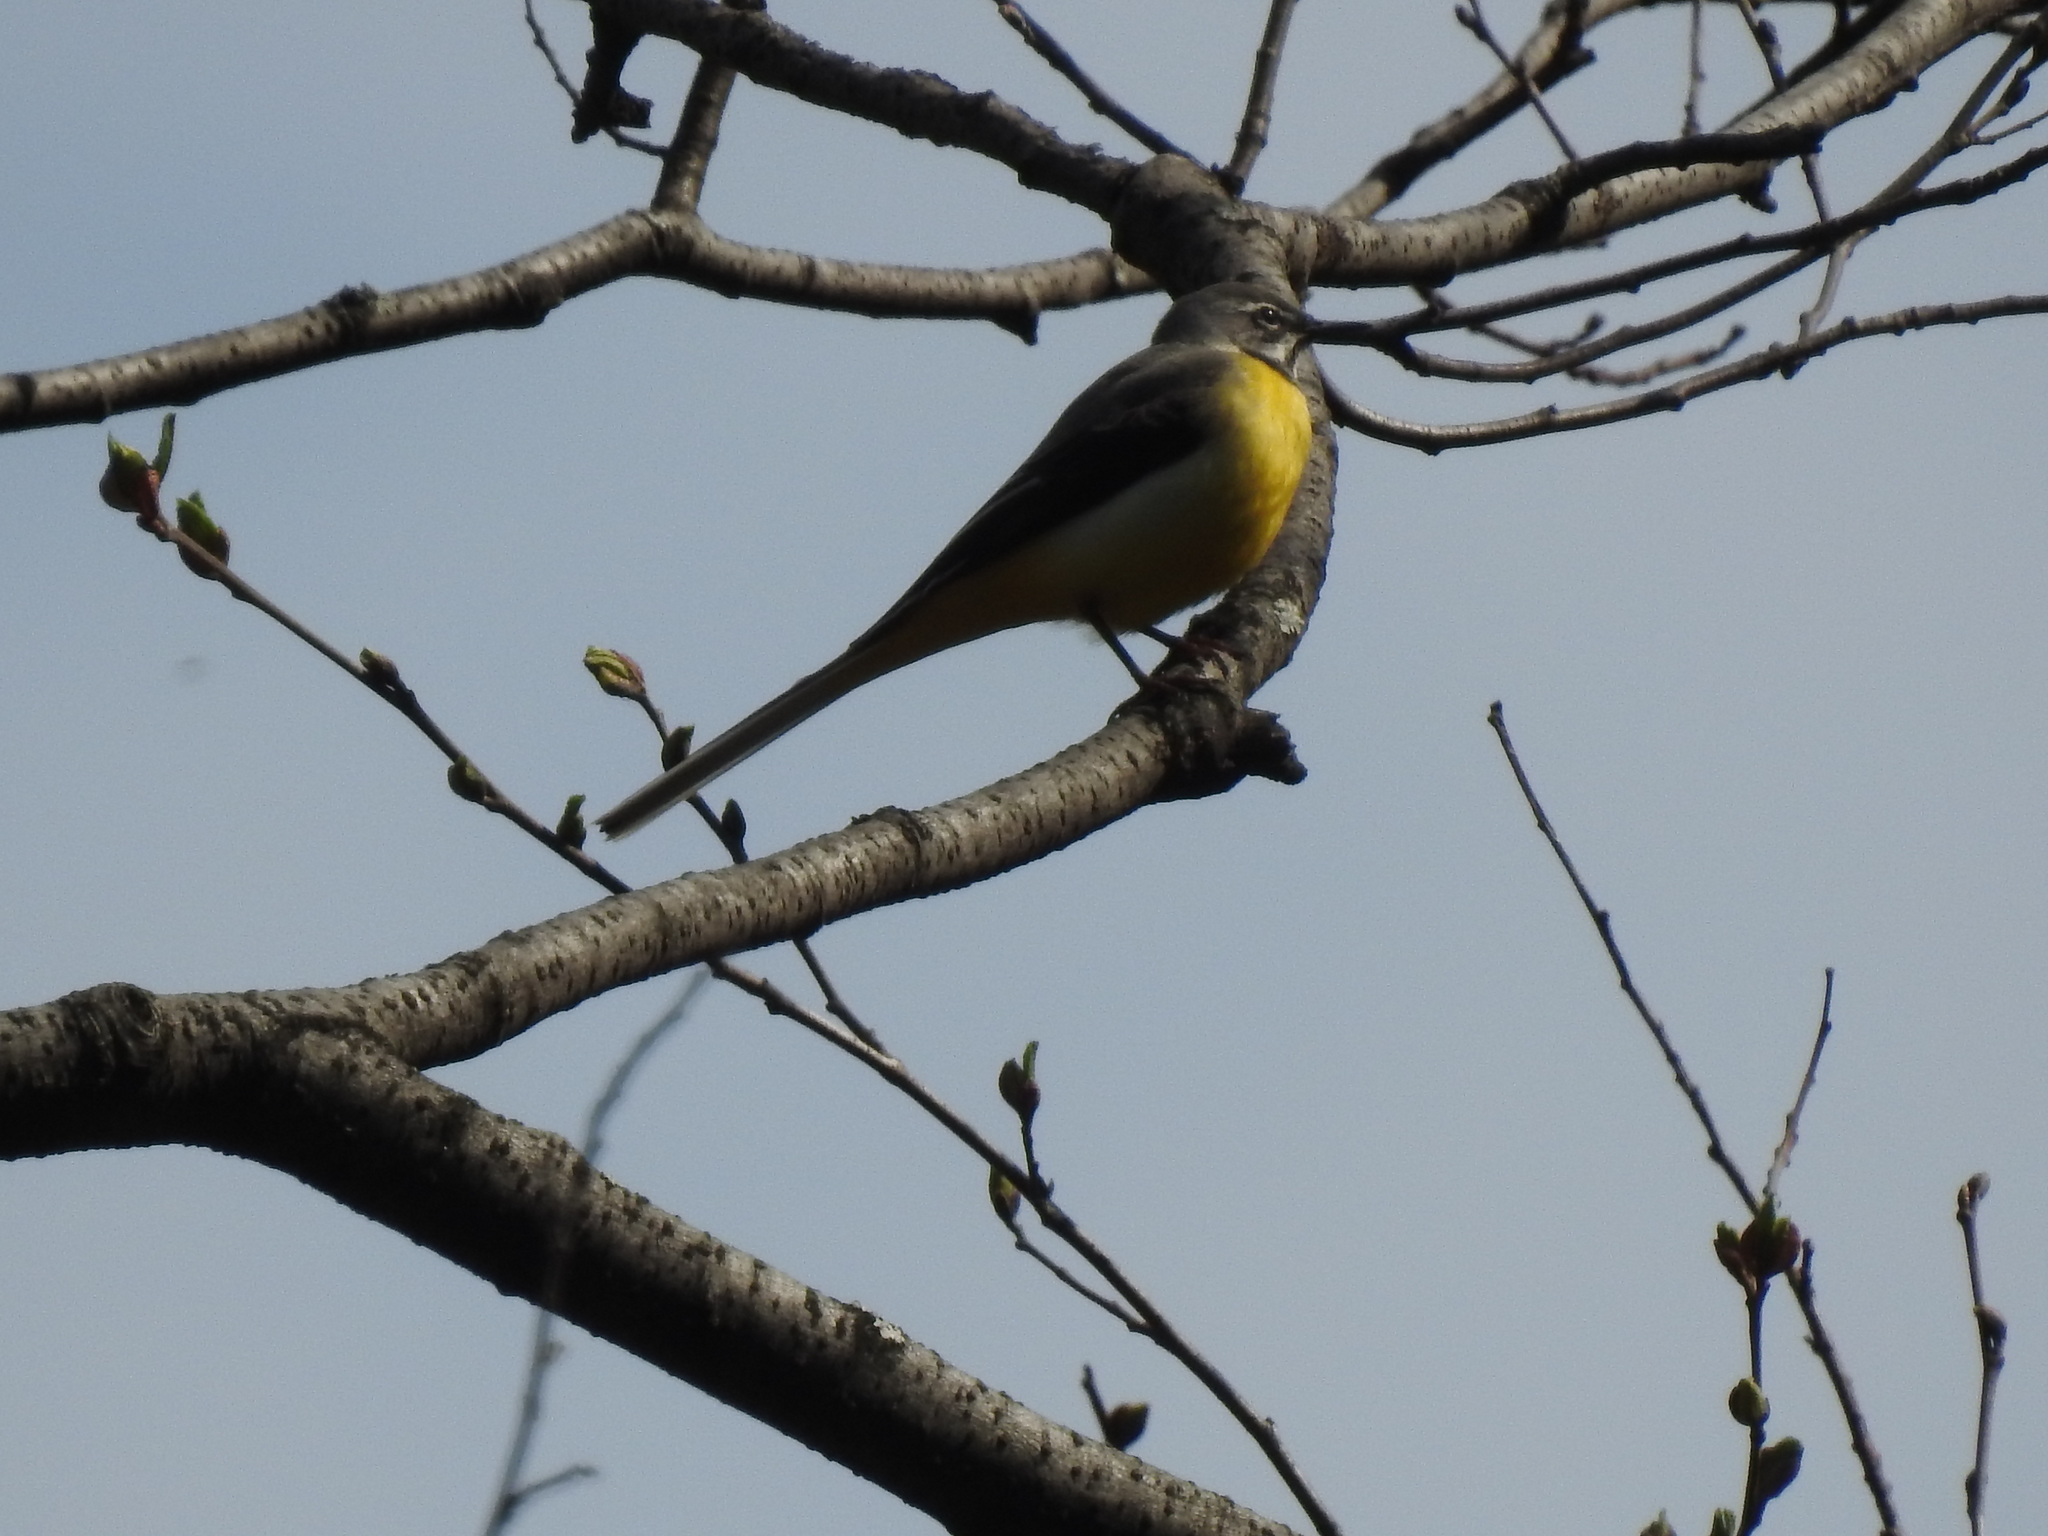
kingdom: Animalia
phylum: Chordata
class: Aves
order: Passeriformes
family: Motacillidae
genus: Motacilla
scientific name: Motacilla cinerea
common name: Grey wagtail
